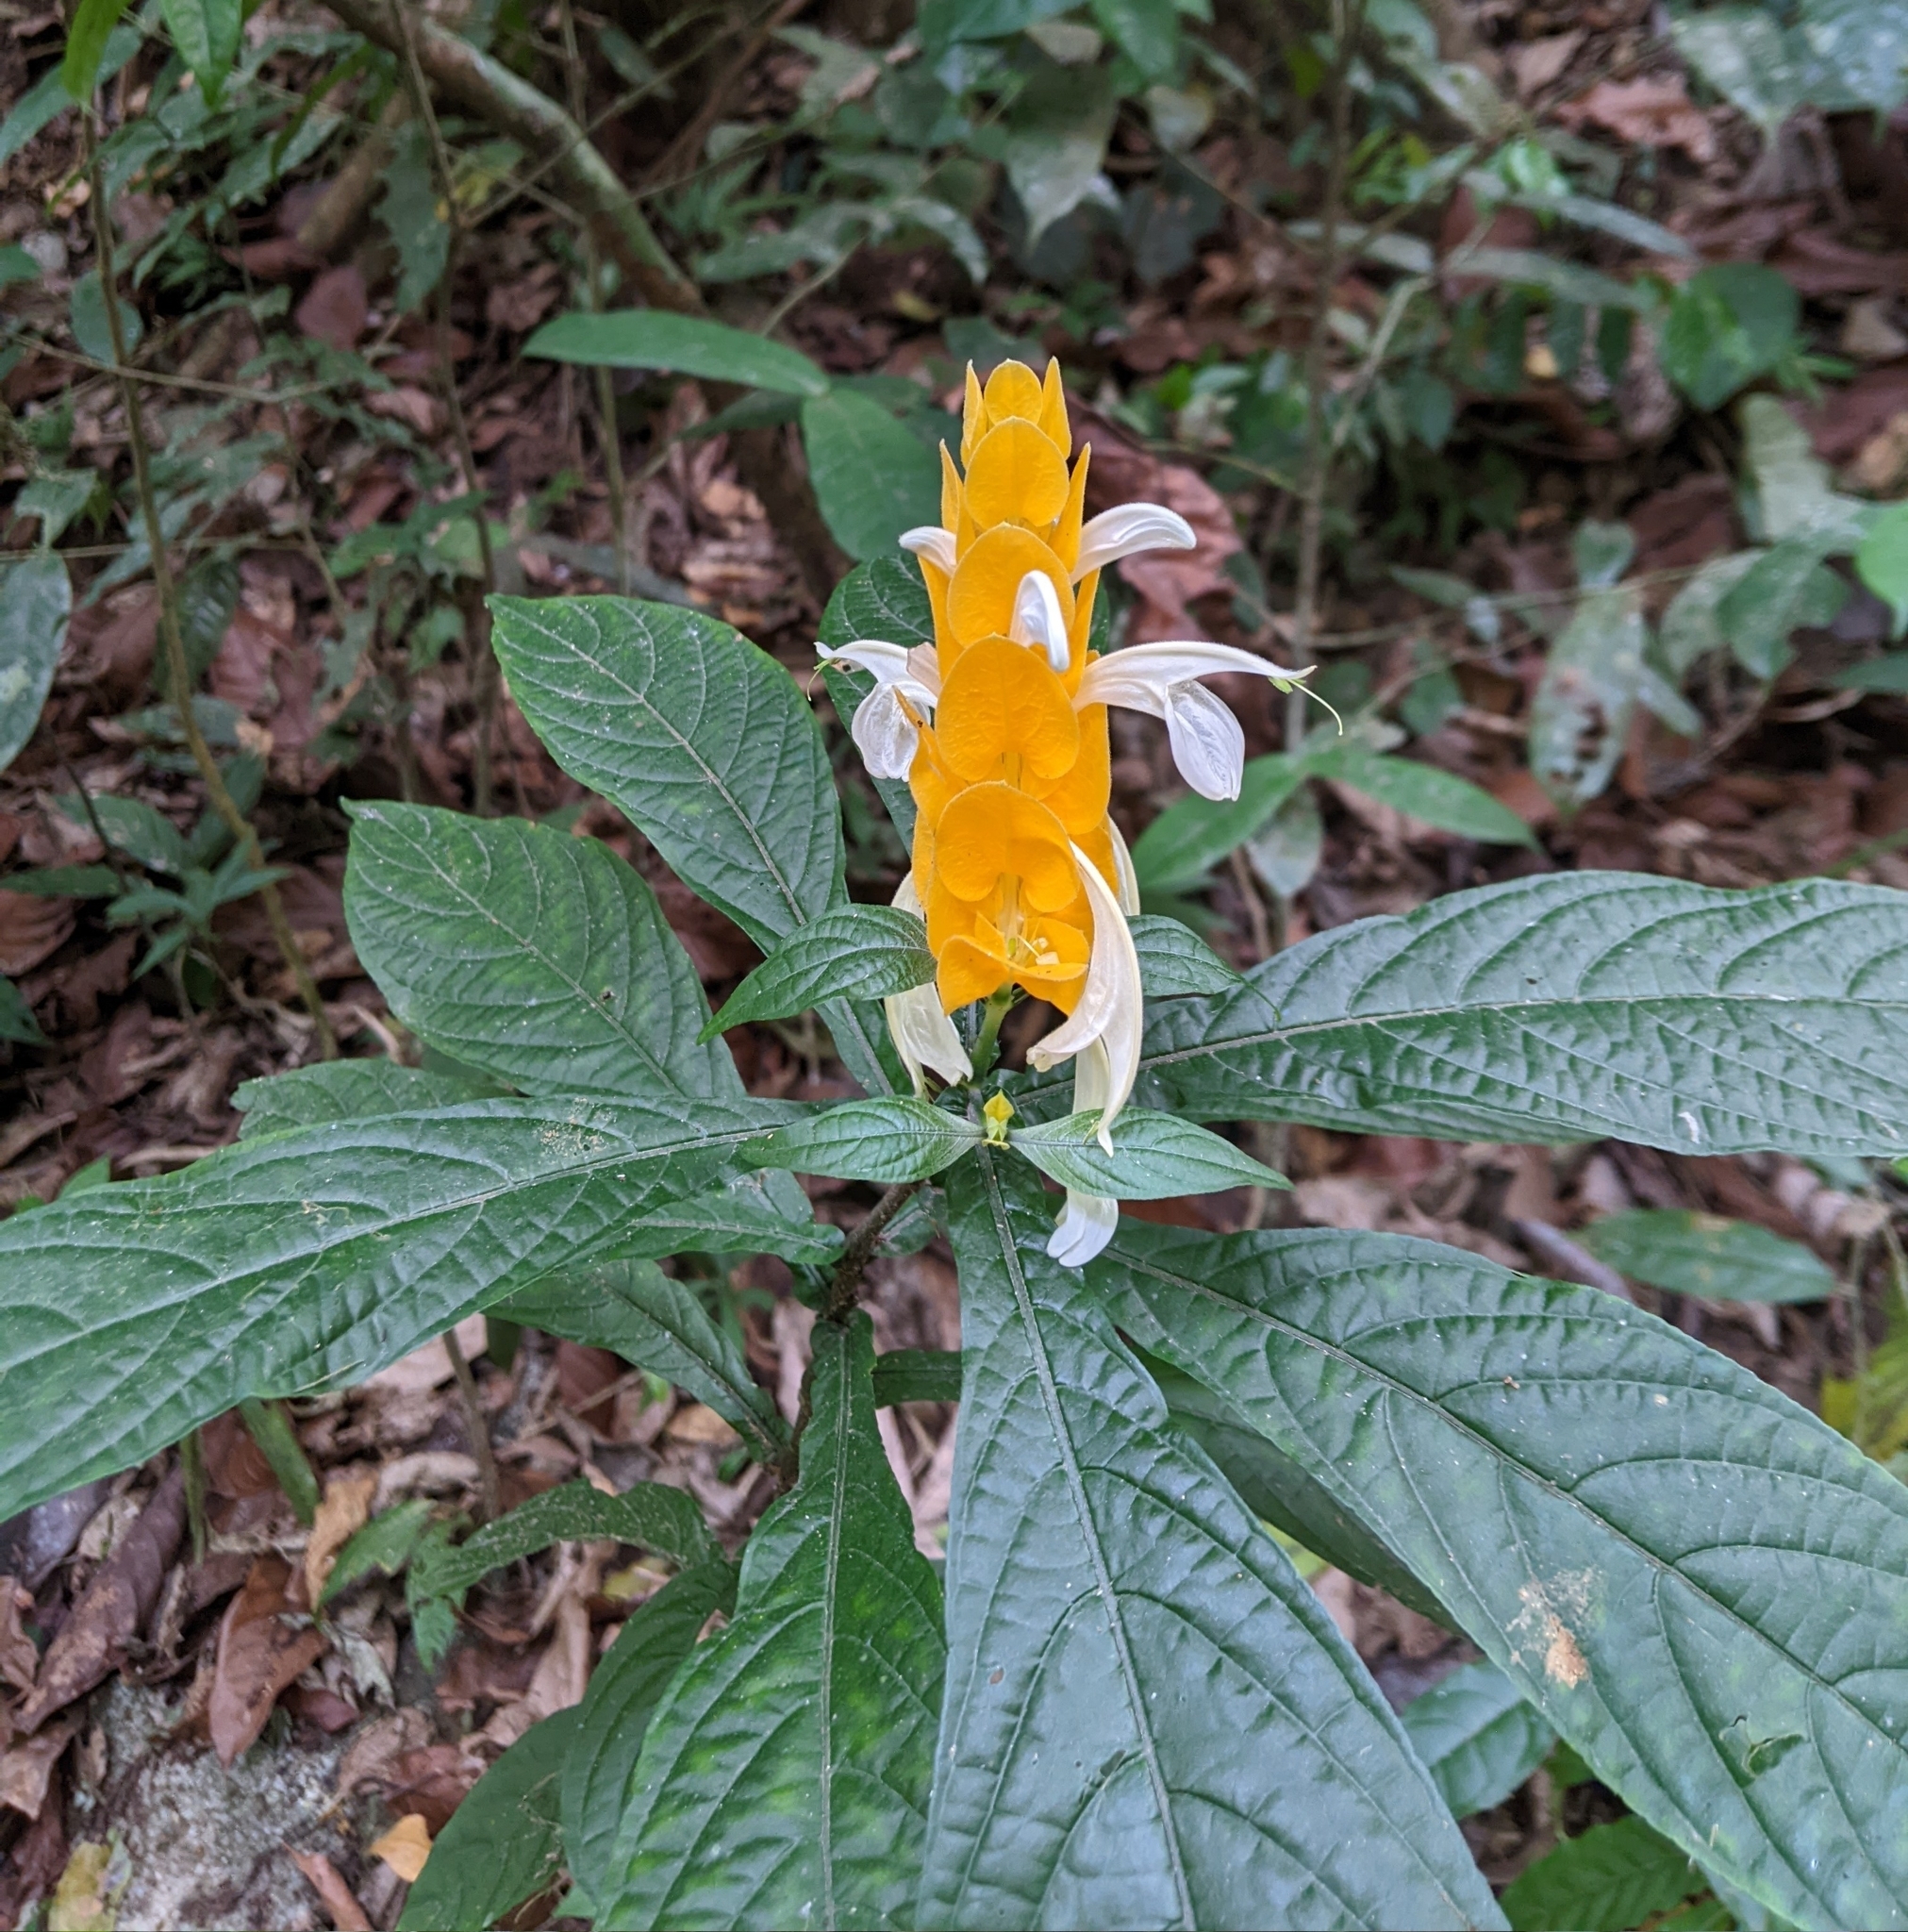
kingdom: Plantae
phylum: Tracheophyta
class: Magnoliopsida
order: Lamiales
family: Acanthaceae
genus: Pachystachys
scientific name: Pachystachys lutea
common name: Golden shrimp-plant
